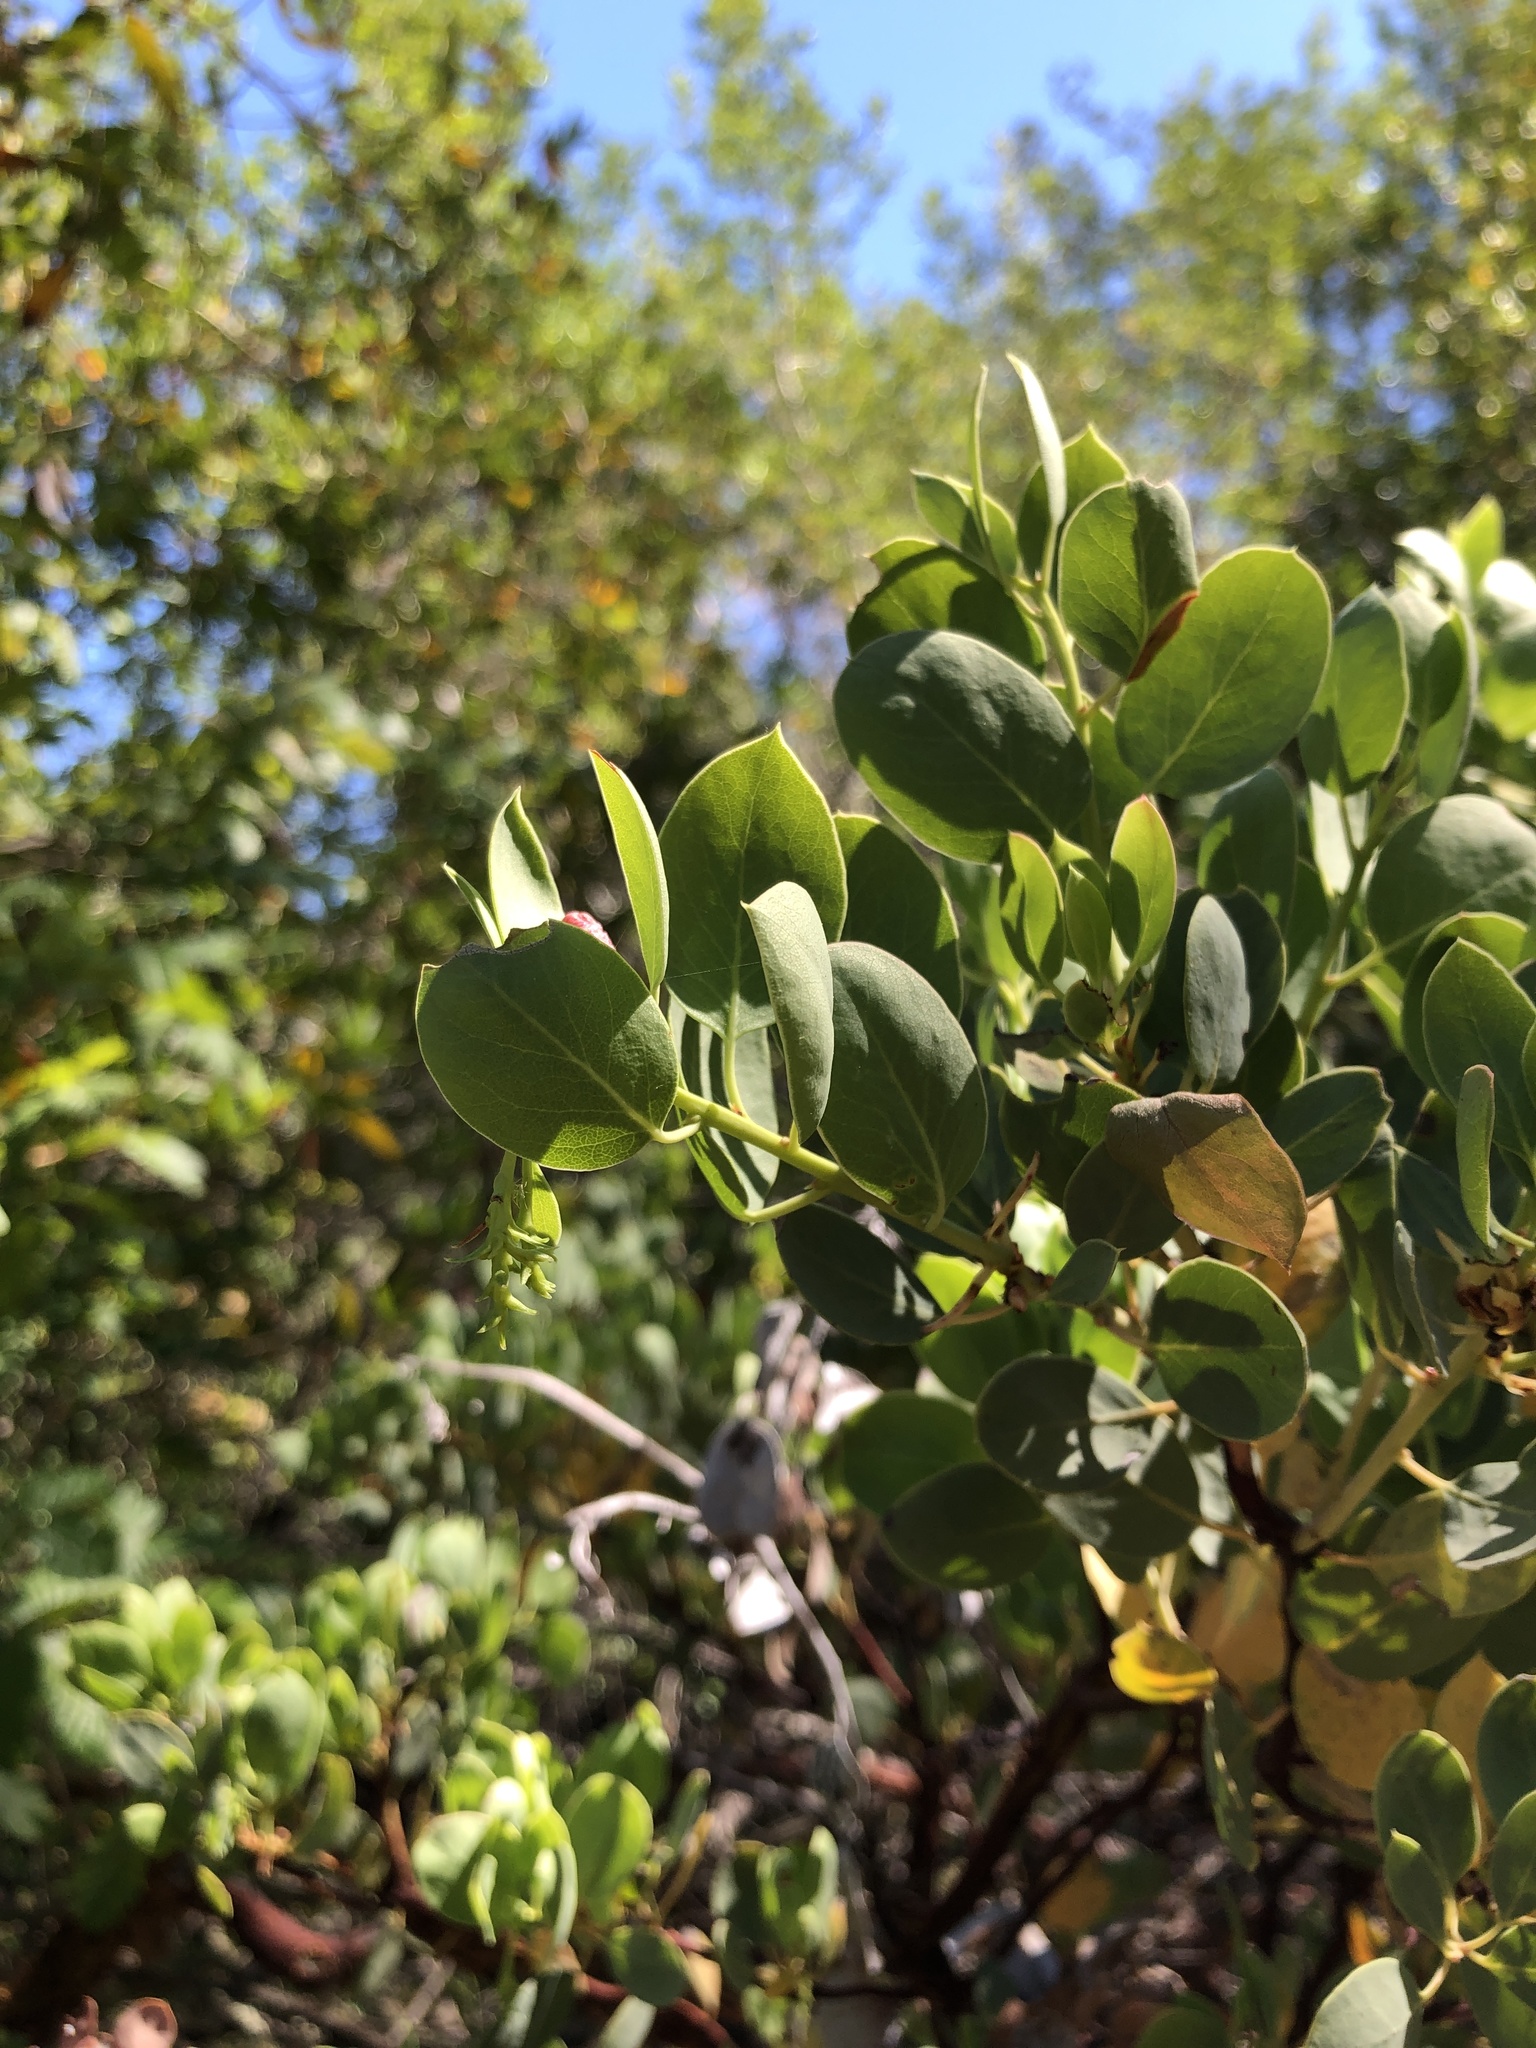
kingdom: Plantae
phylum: Tracheophyta
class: Magnoliopsida
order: Ericales
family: Ericaceae
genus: Arctostaphylos
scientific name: Arctostaphylos glauca
